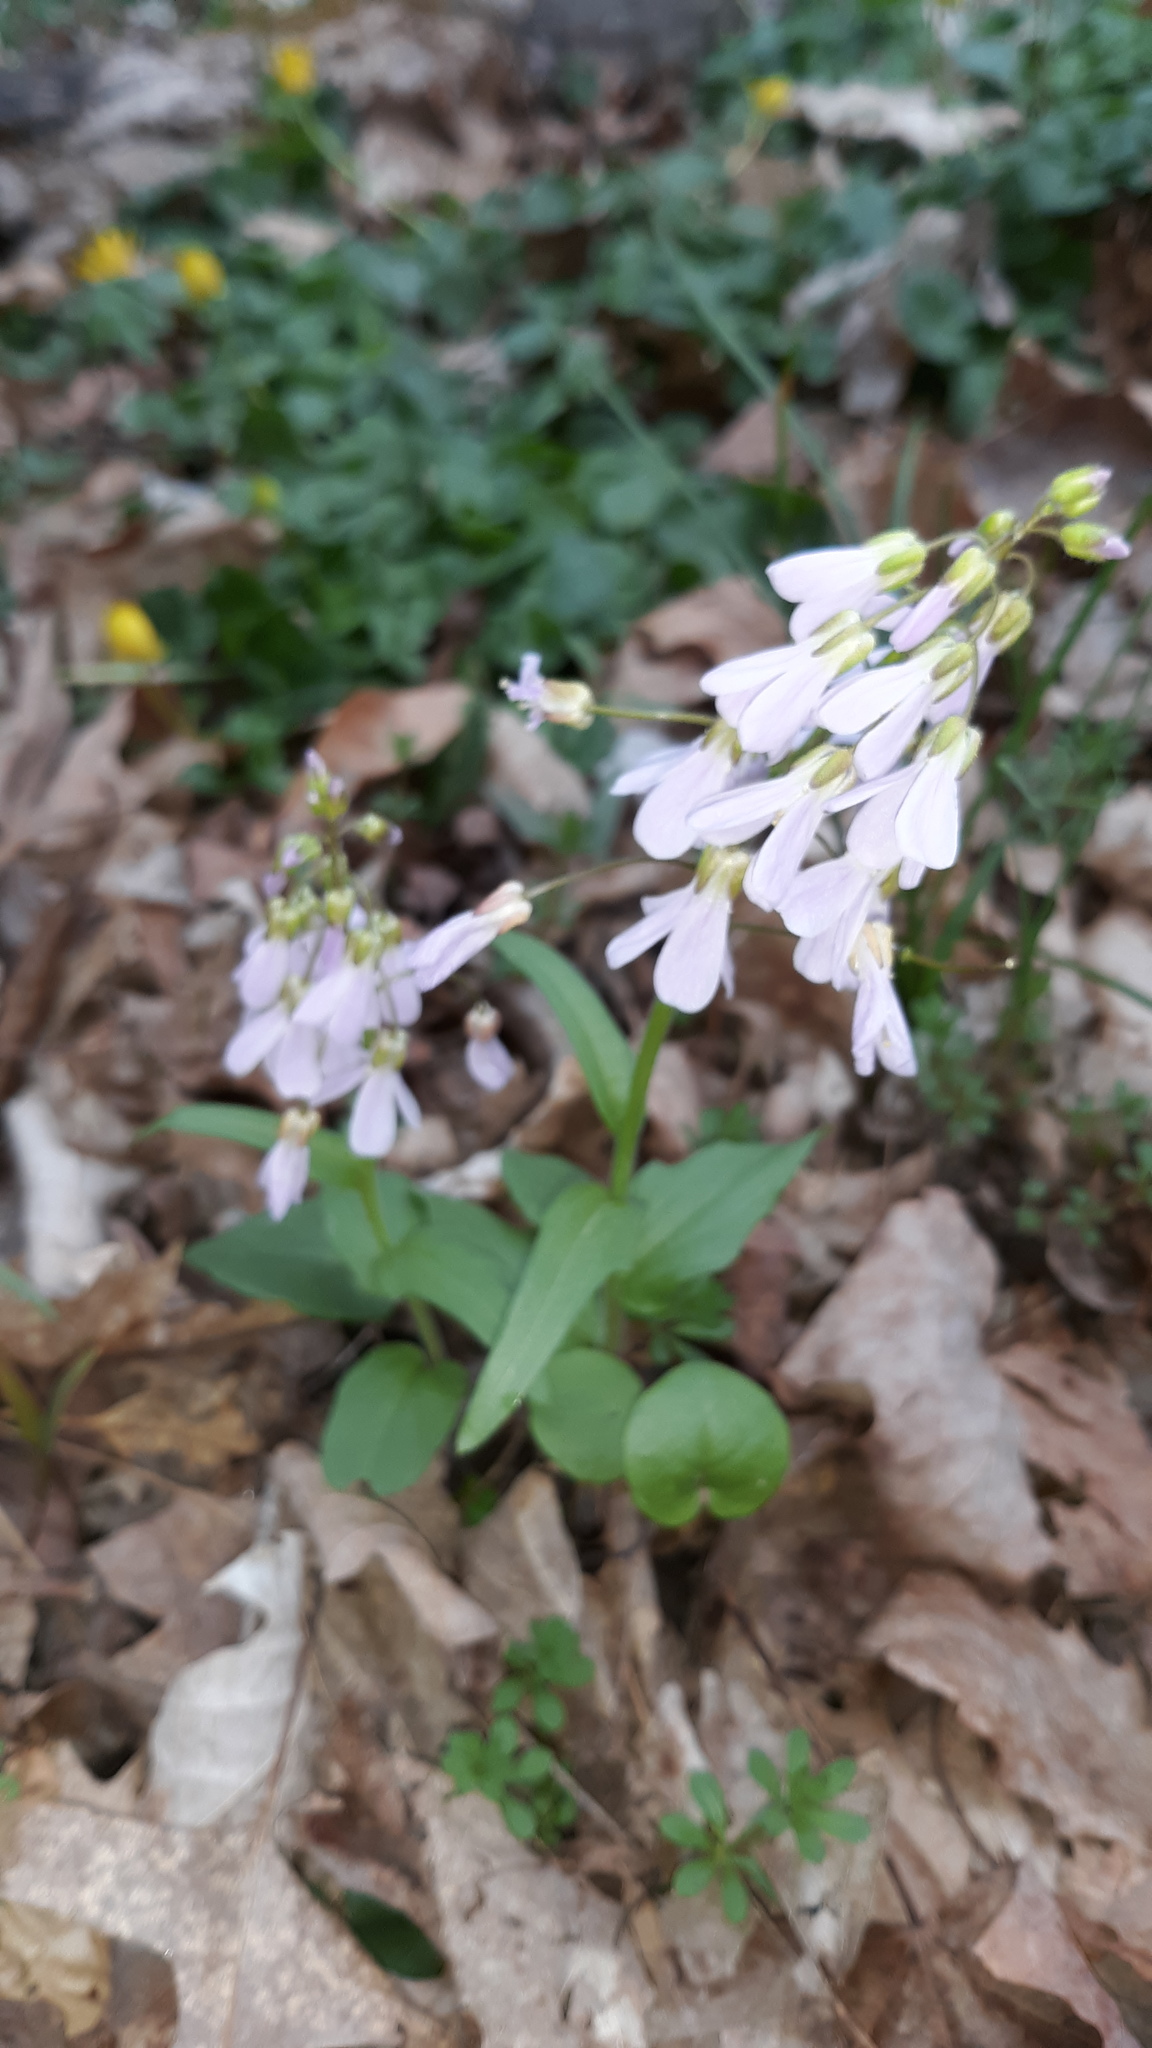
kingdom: Plantae
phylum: Tracheophyta
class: Magnoliopsida
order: Brassicales
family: Brassicaceae
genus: Cardamine
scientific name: Cardamine douglassii
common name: Purple cress
